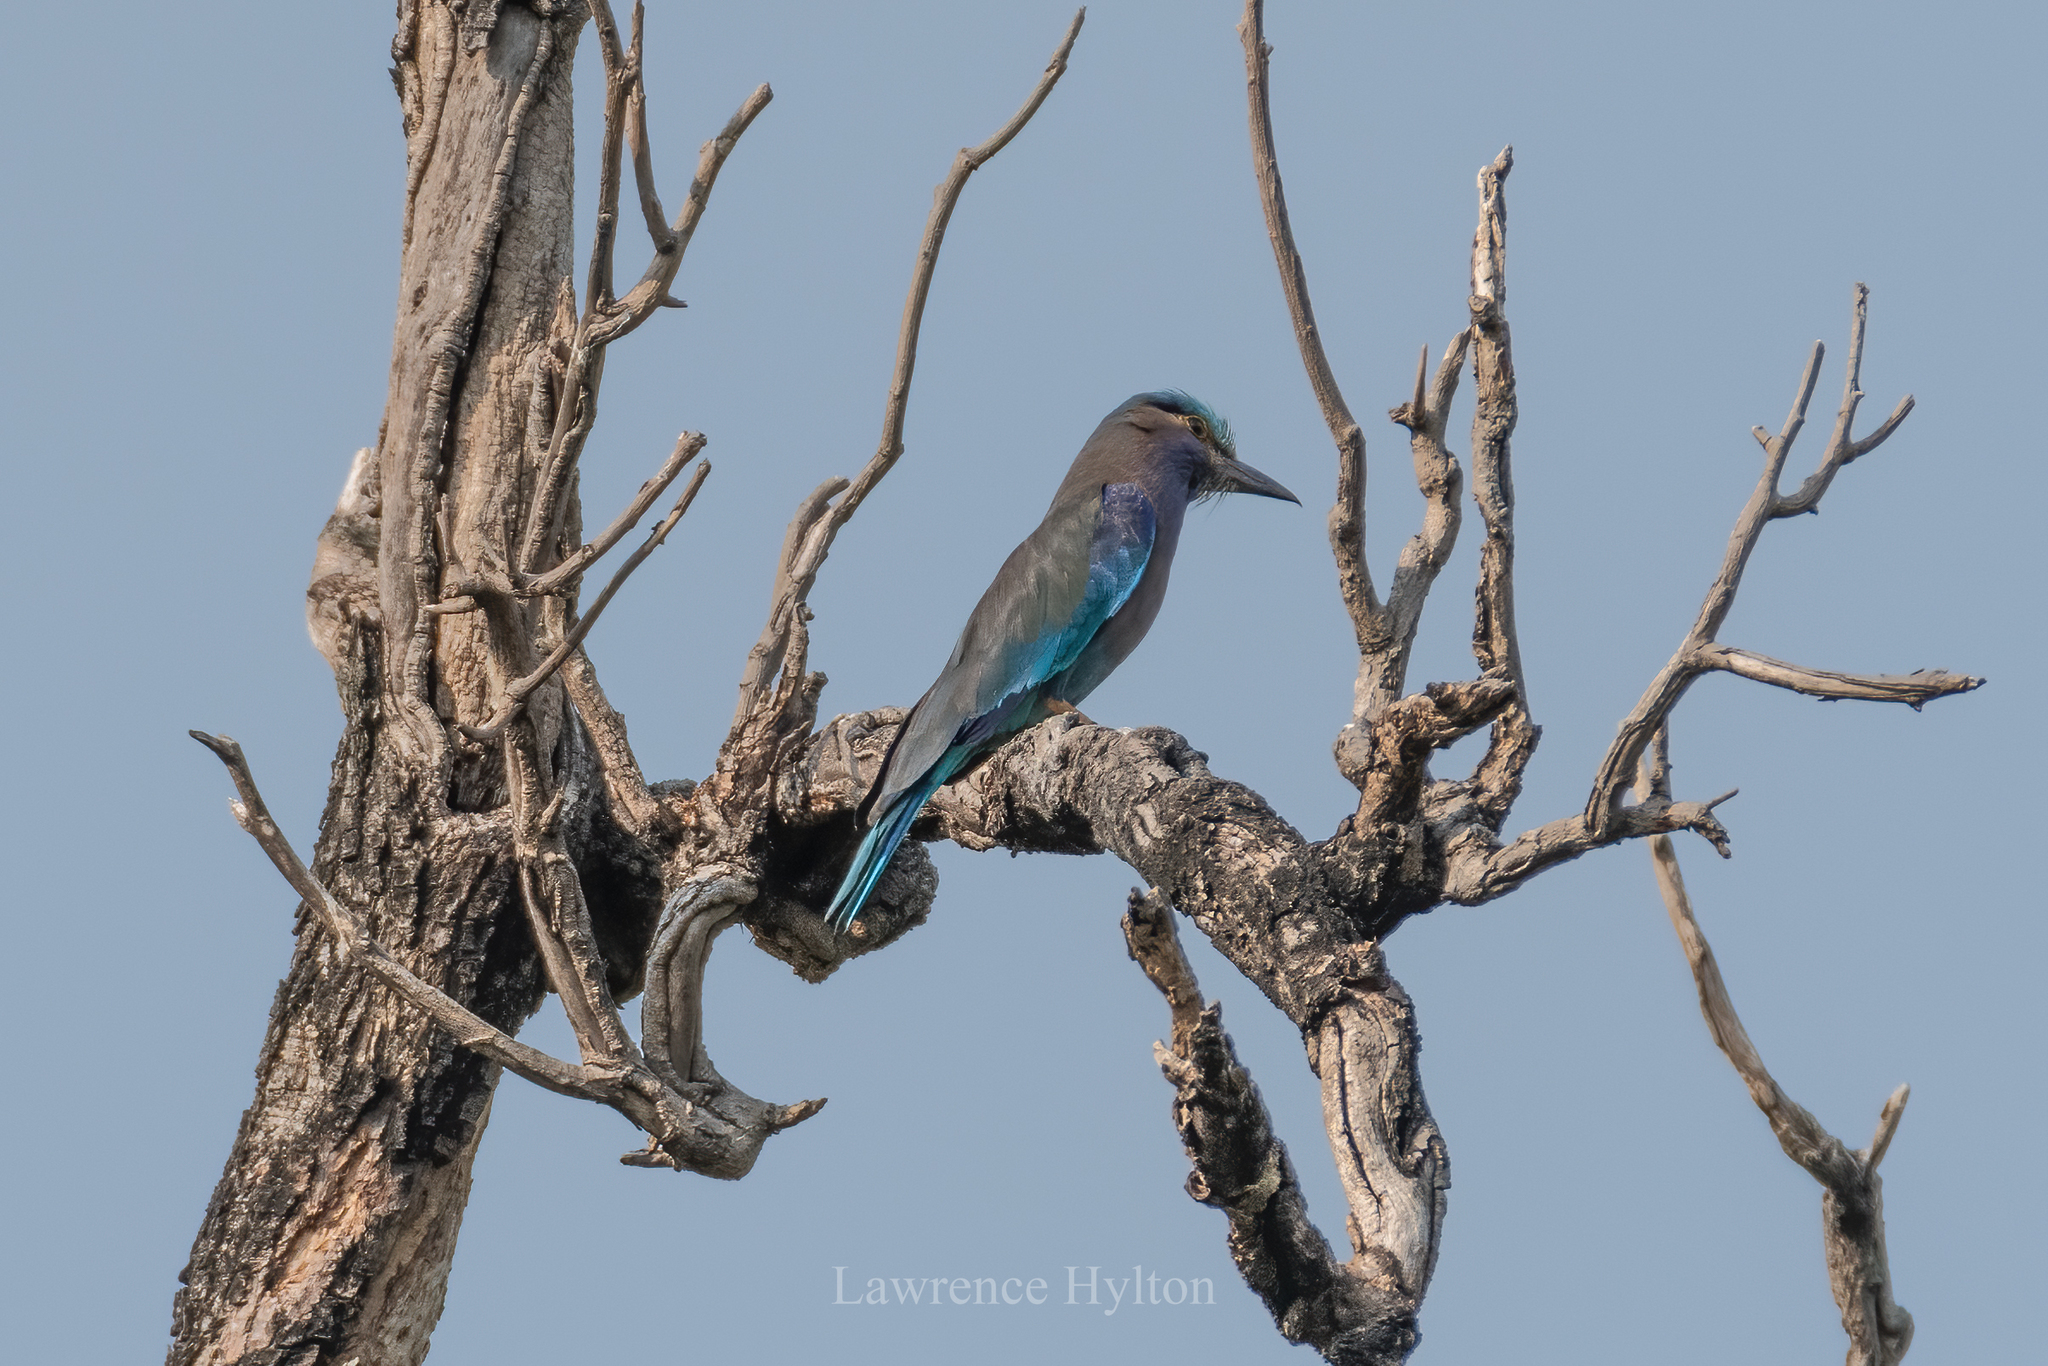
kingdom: Animalia
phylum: Chordata
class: Aves
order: Coraciiformes
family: Coraciidae
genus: Coracias
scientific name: Coracias affinis
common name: Indochinese roller
